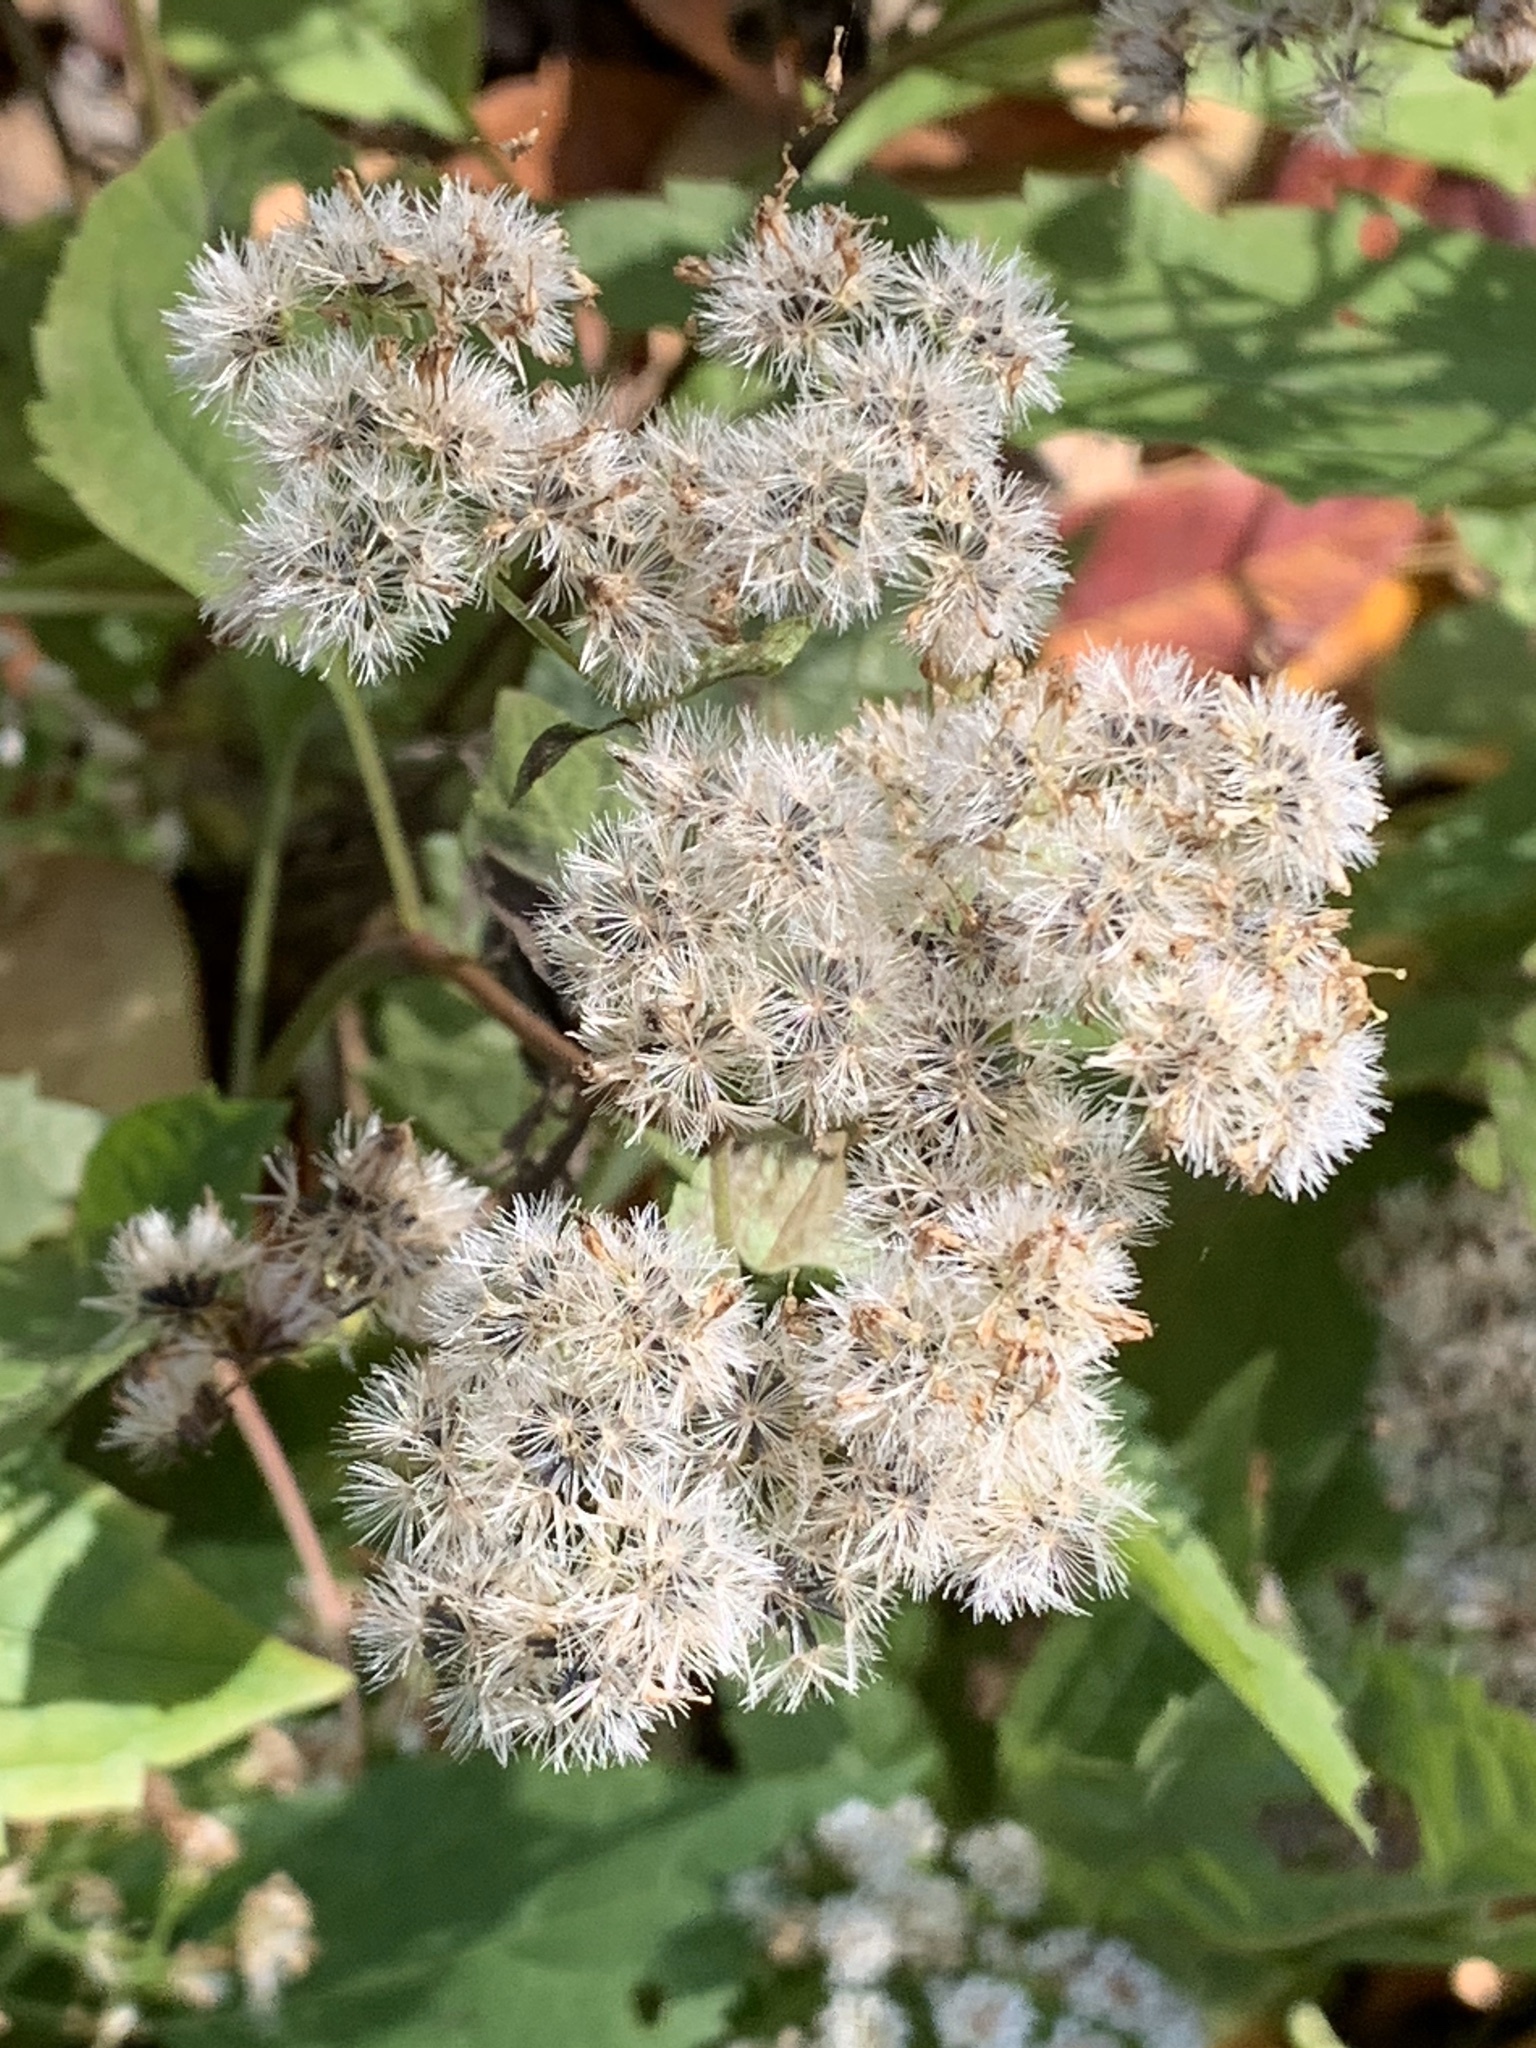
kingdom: Plantae
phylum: Tracheophyta
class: Magnoliopsida
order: Asterales
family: Asteraceae
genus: Ageratina
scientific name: Ageratina altissima
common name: White snakeroot
